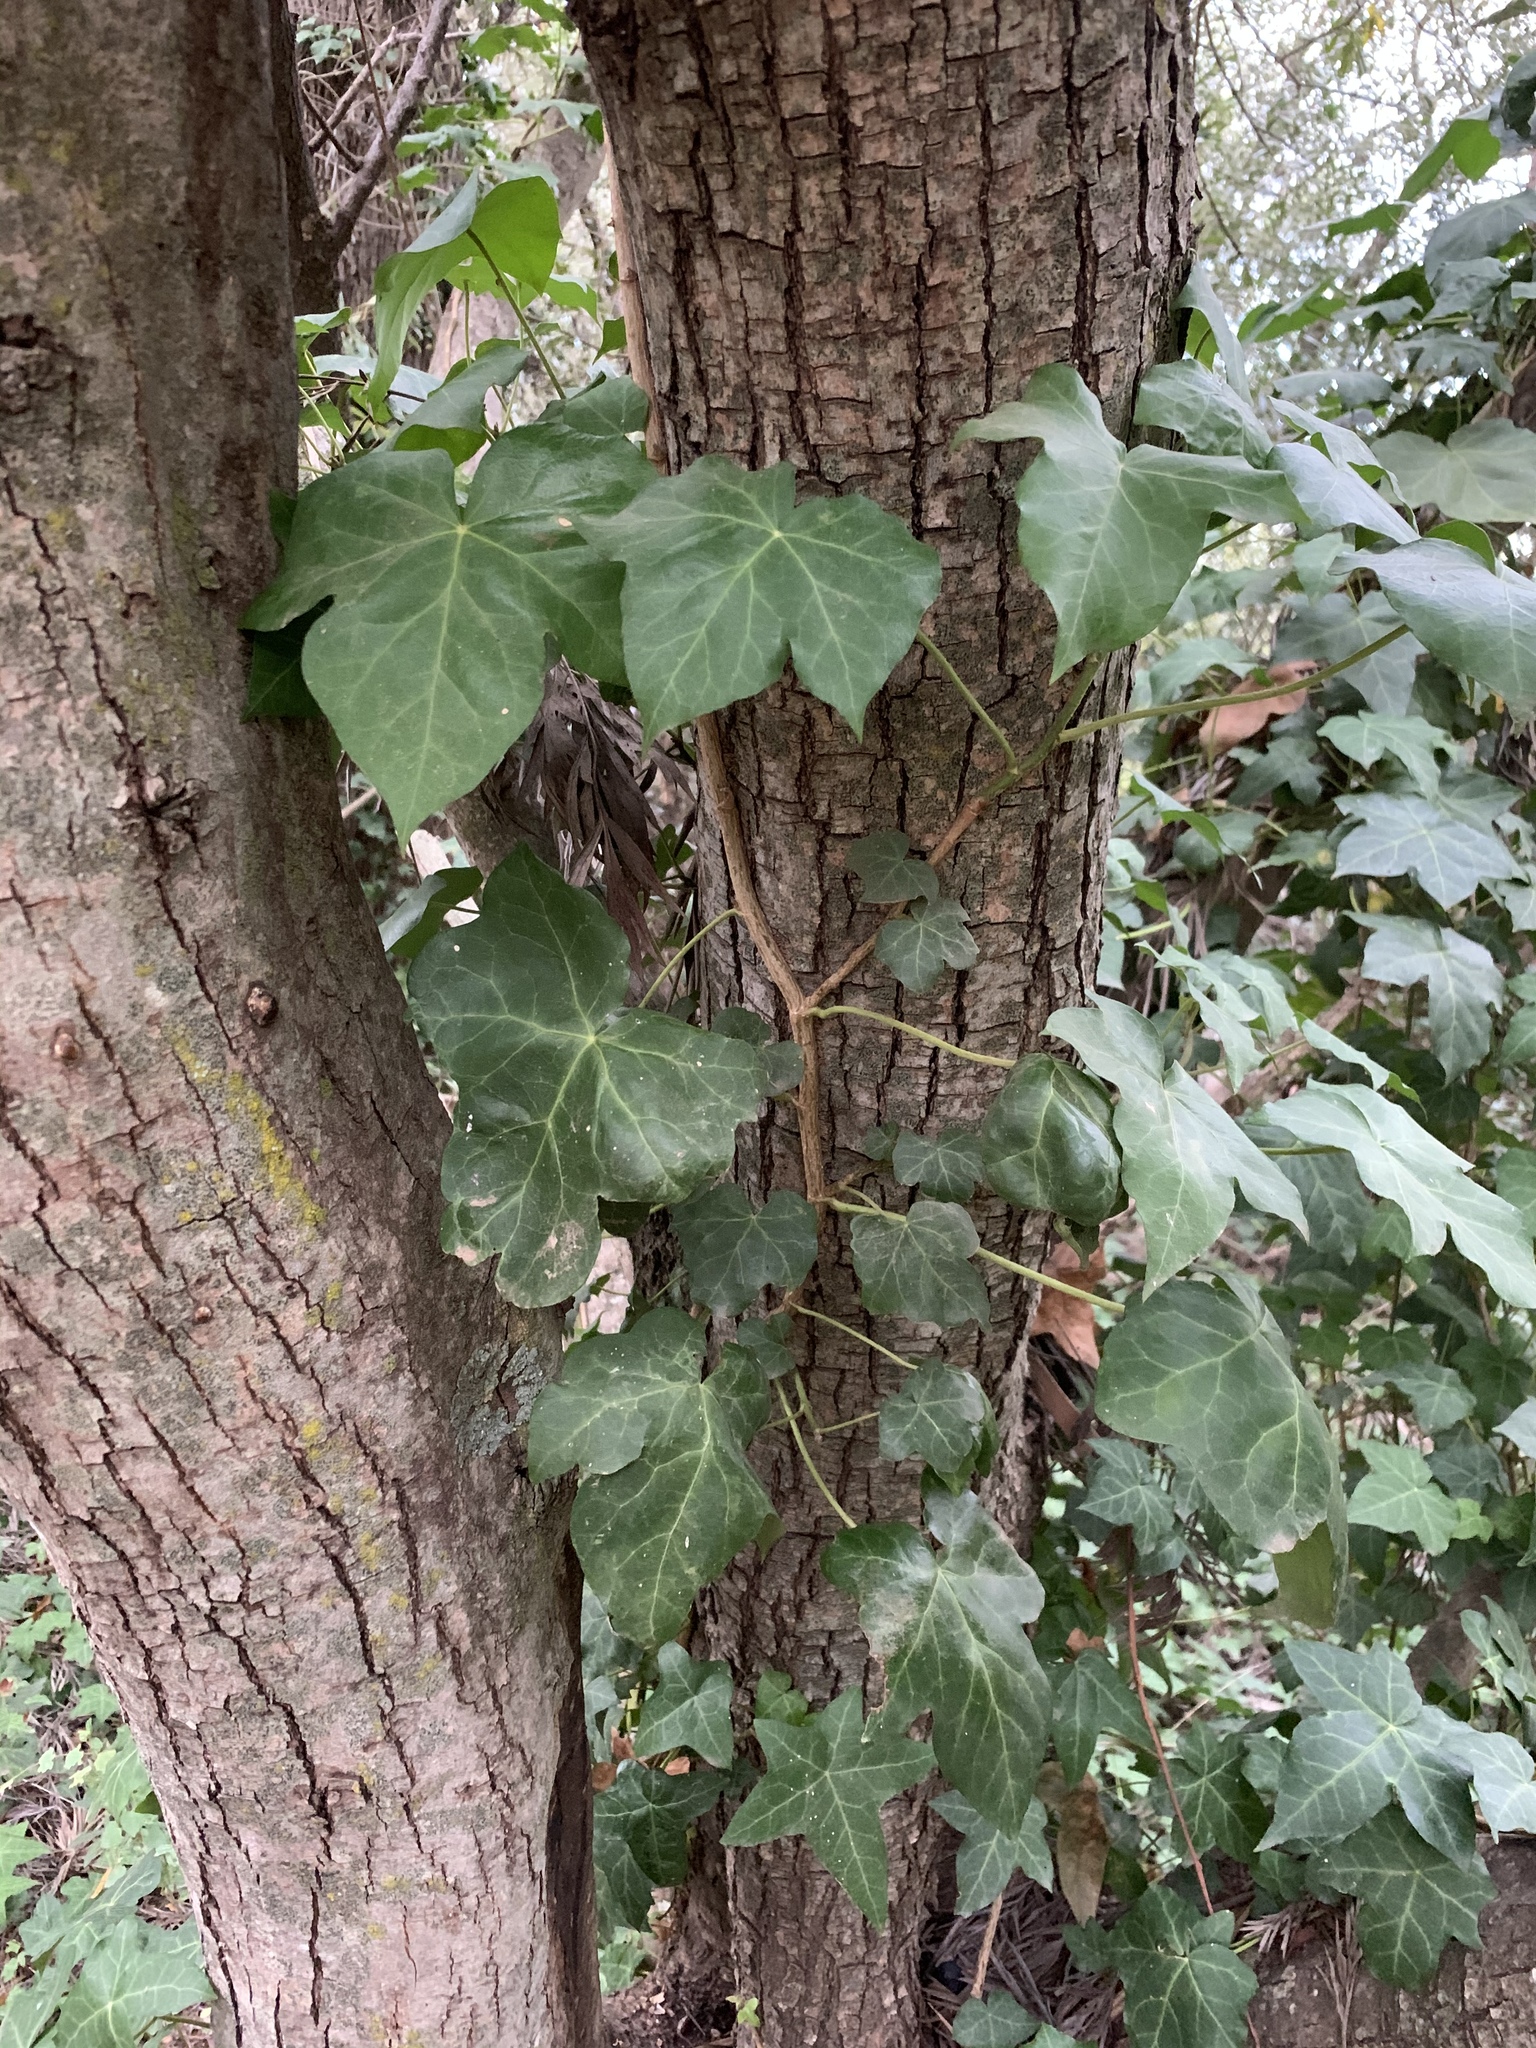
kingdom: Plantae
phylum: Tracheophyta
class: Magnoliopsida
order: Apiales
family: Araliaceae
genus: Hedera
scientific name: Hedera helix
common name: Ivy
